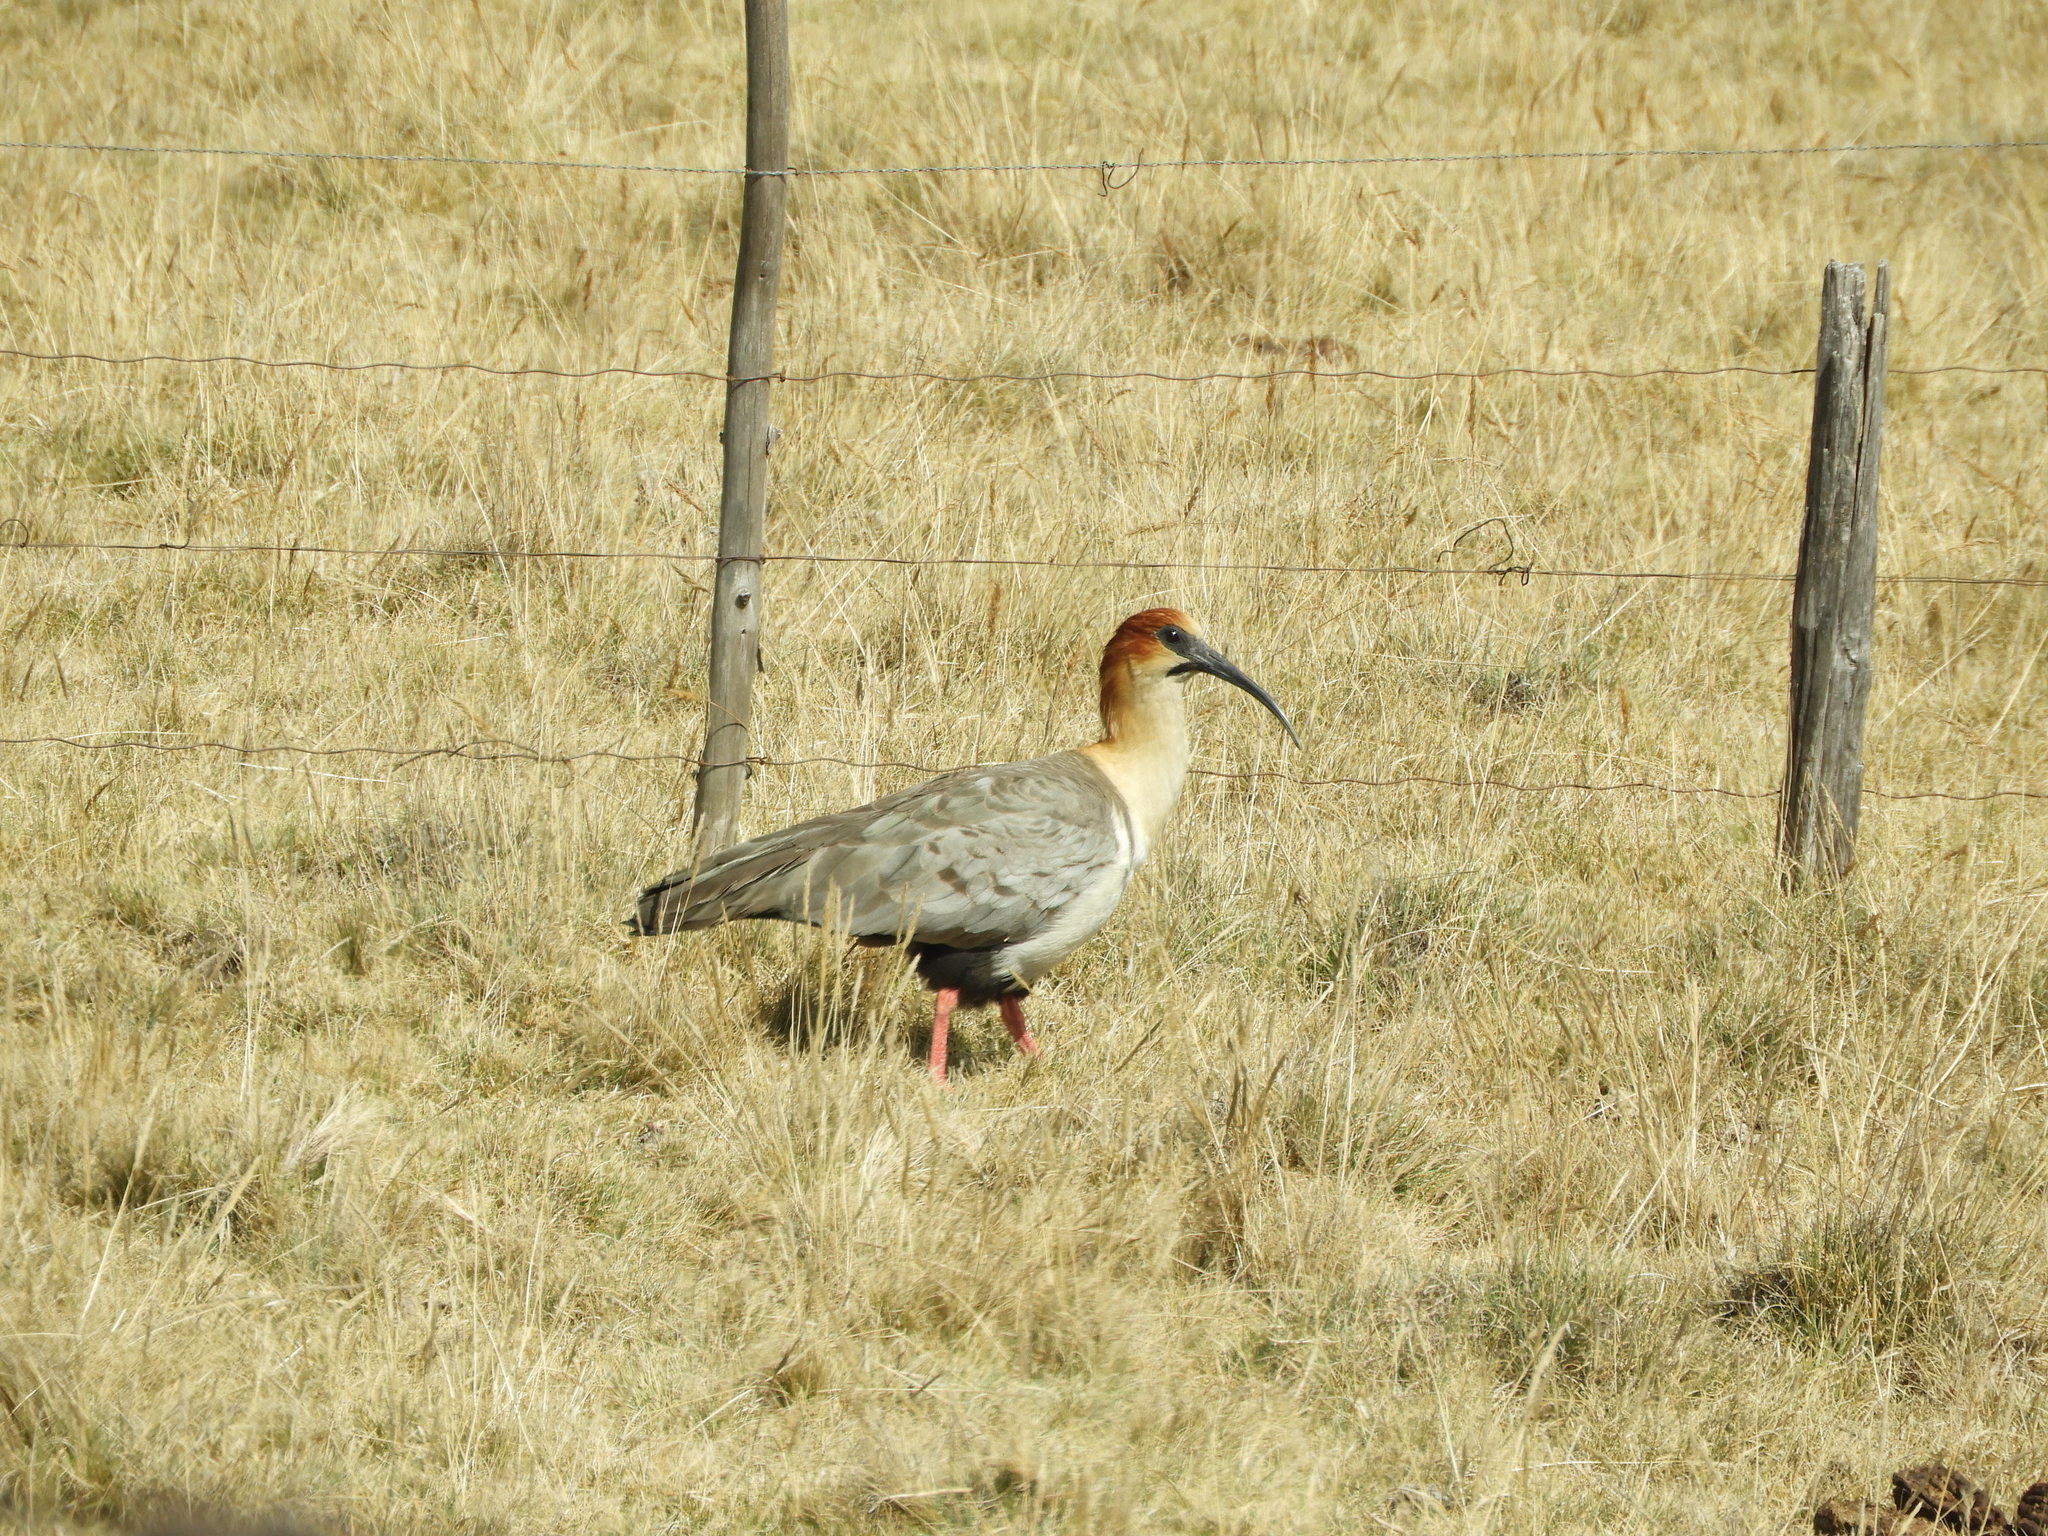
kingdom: Animalia
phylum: Chordata
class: Aves
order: Pelecaniformes
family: Threskiornithidae
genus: Theristicus
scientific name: Theristicus melanopis
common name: Black-faced ibis
